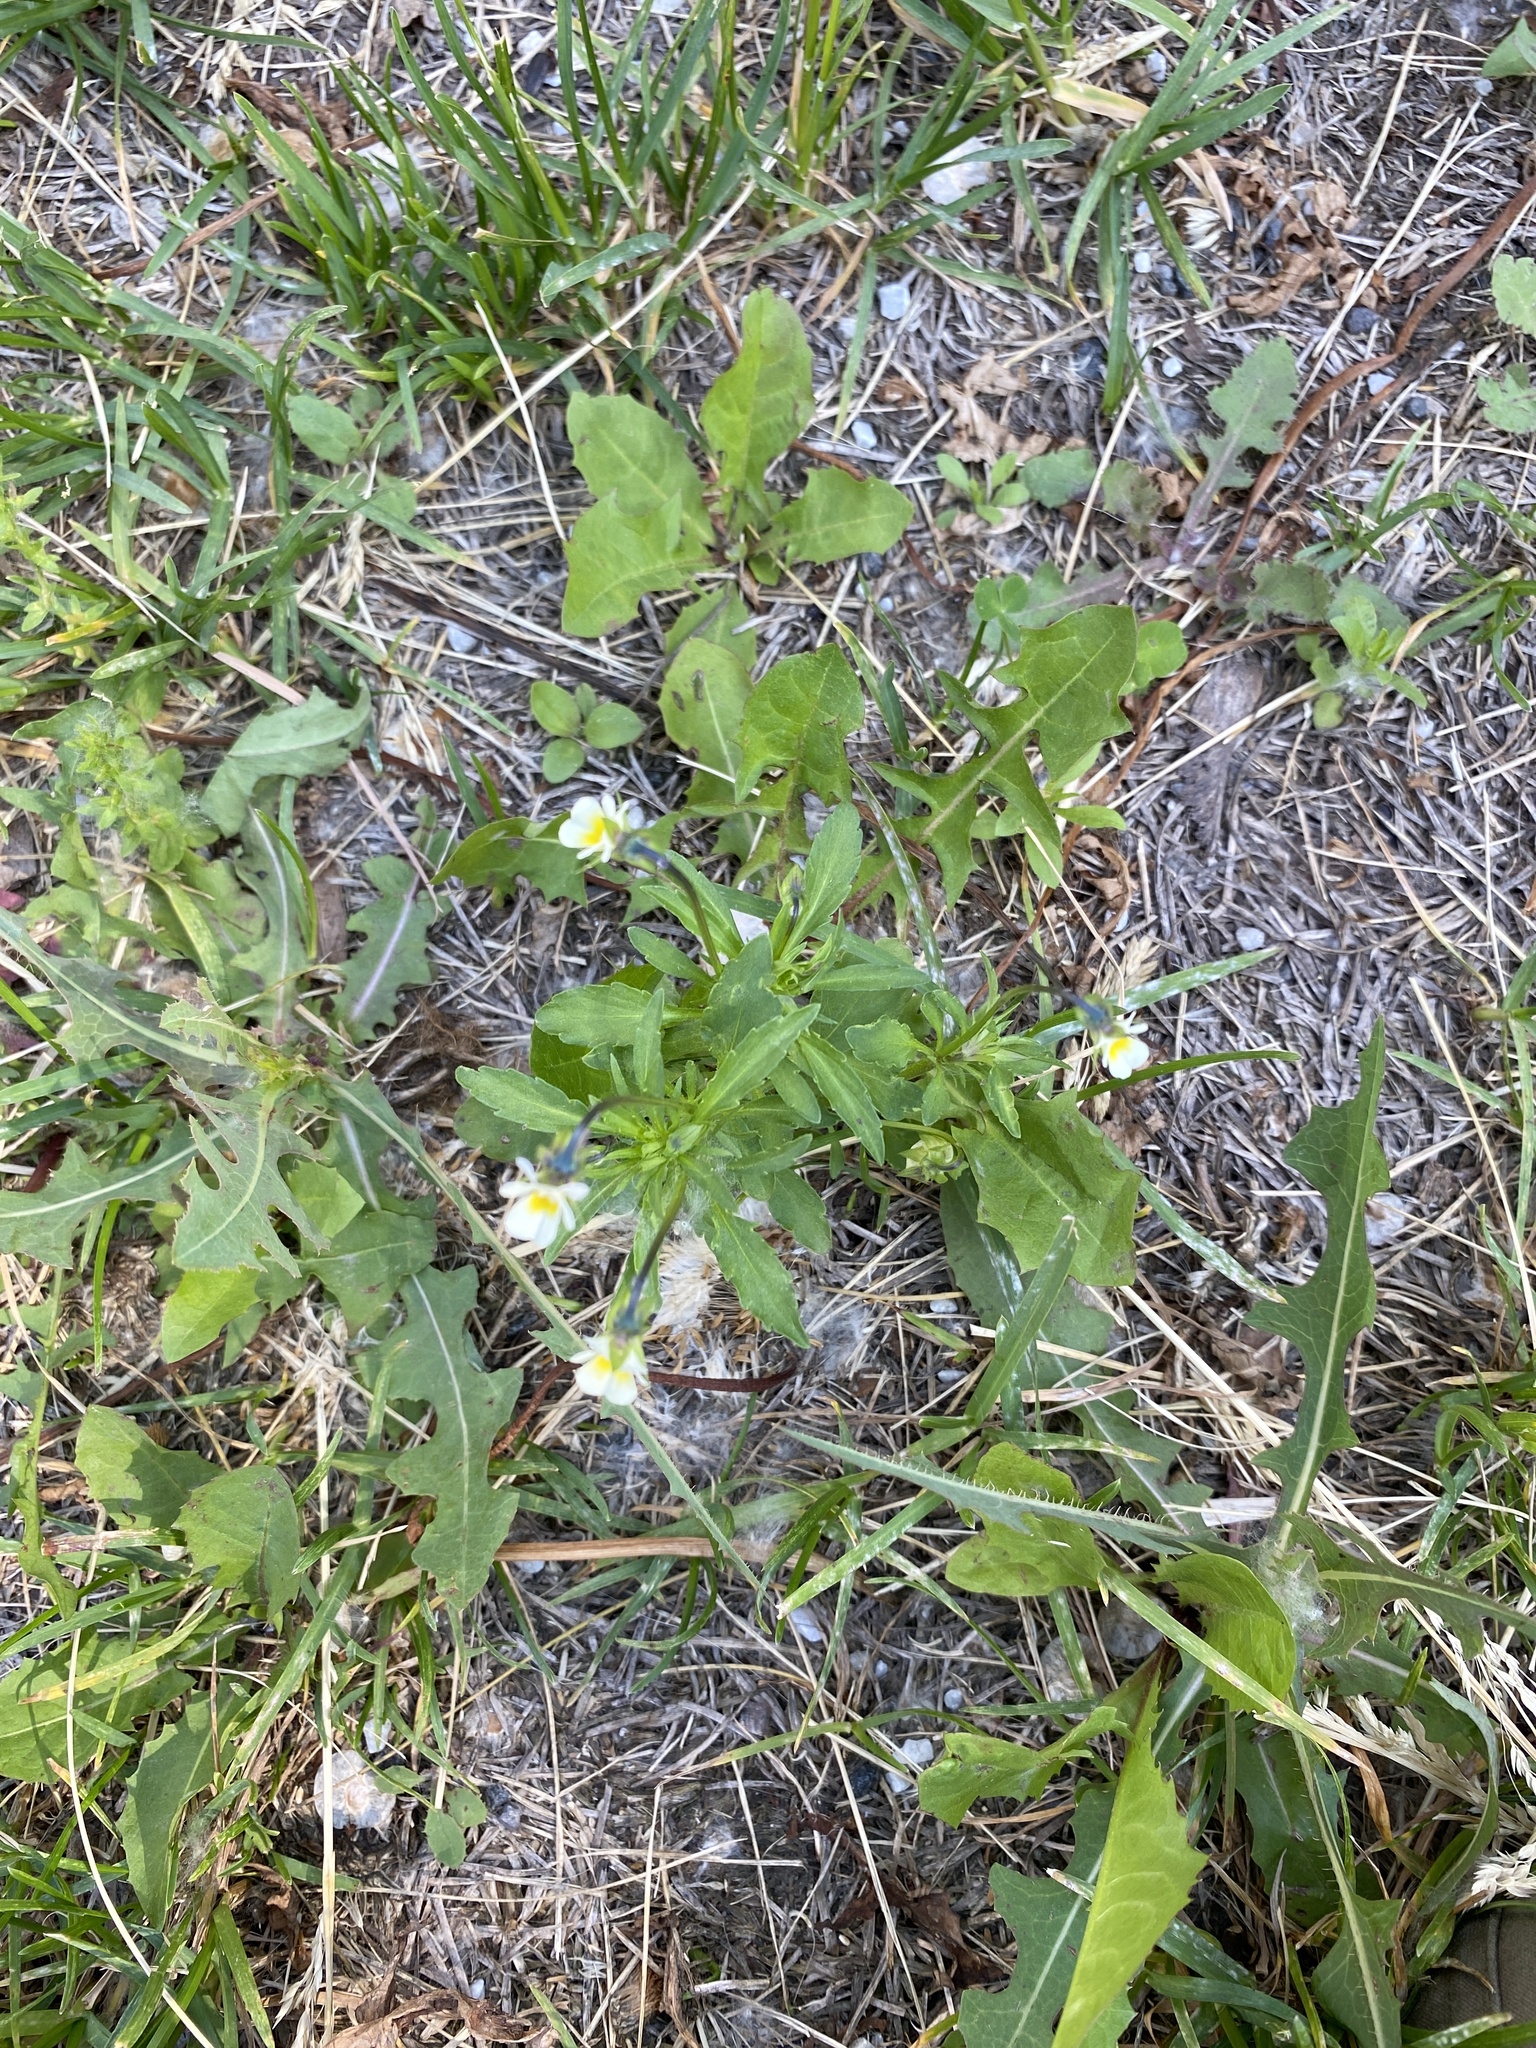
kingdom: Plantae
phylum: Tracheophyta
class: Magnoliopsida
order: Malpighiales
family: Violaceae
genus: Viola
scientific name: Viola arvensis
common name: Field pansy
